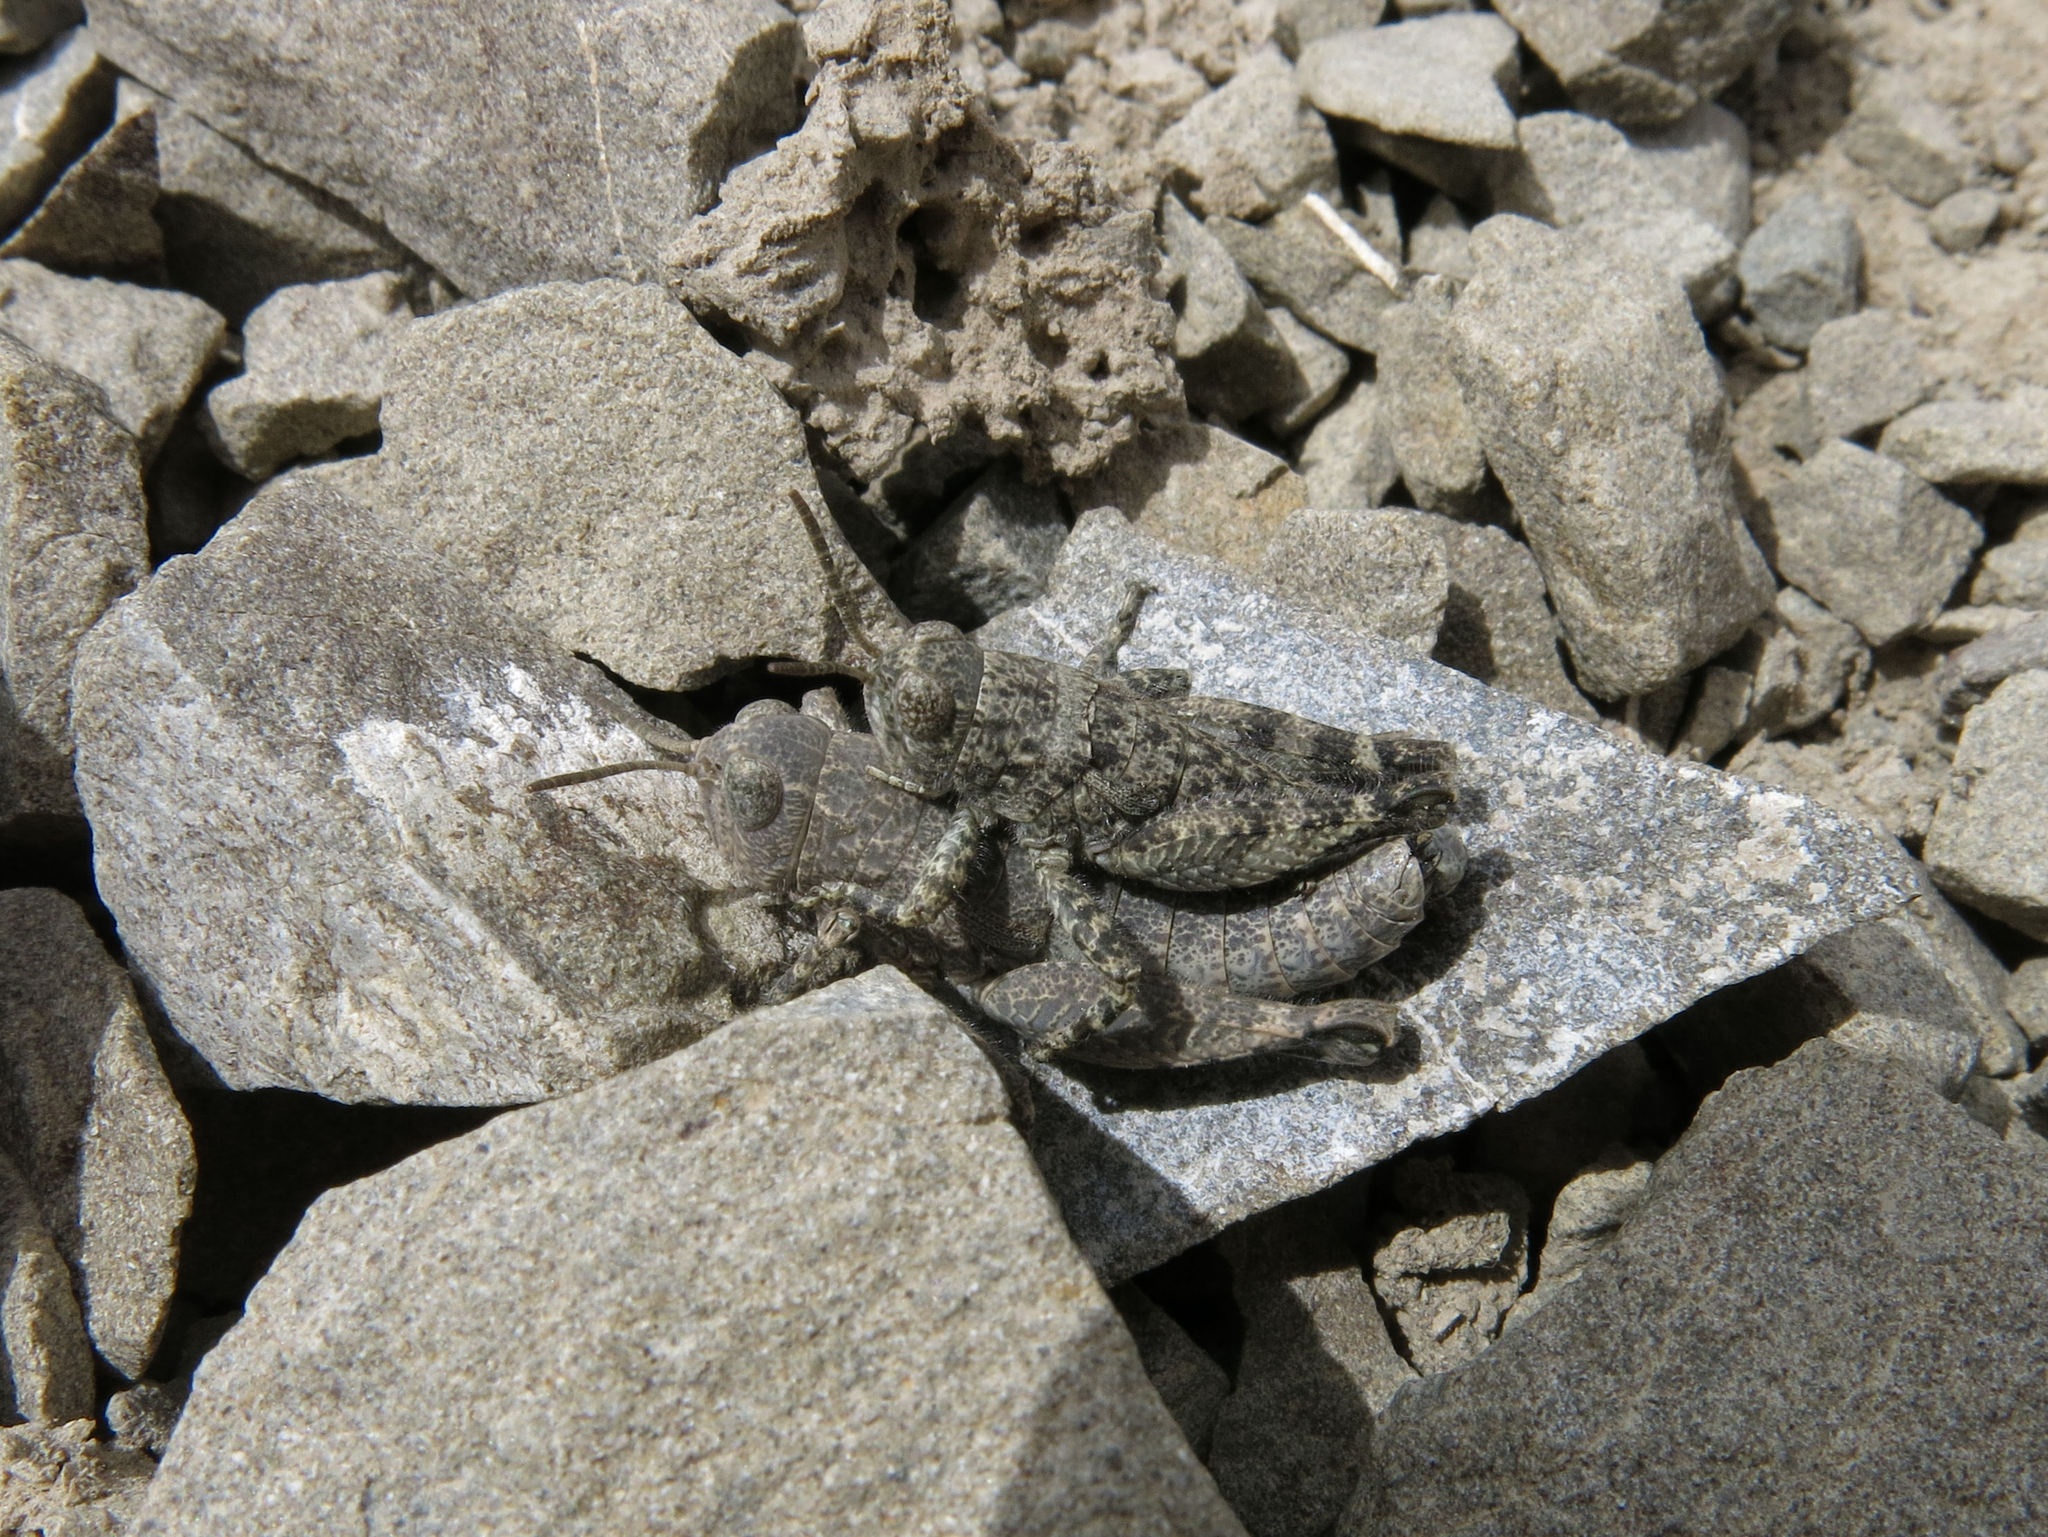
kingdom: Animalia
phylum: Arthropoda
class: Insecta
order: Orthoptera
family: Acrididae
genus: Sigaus
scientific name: Sigaus
